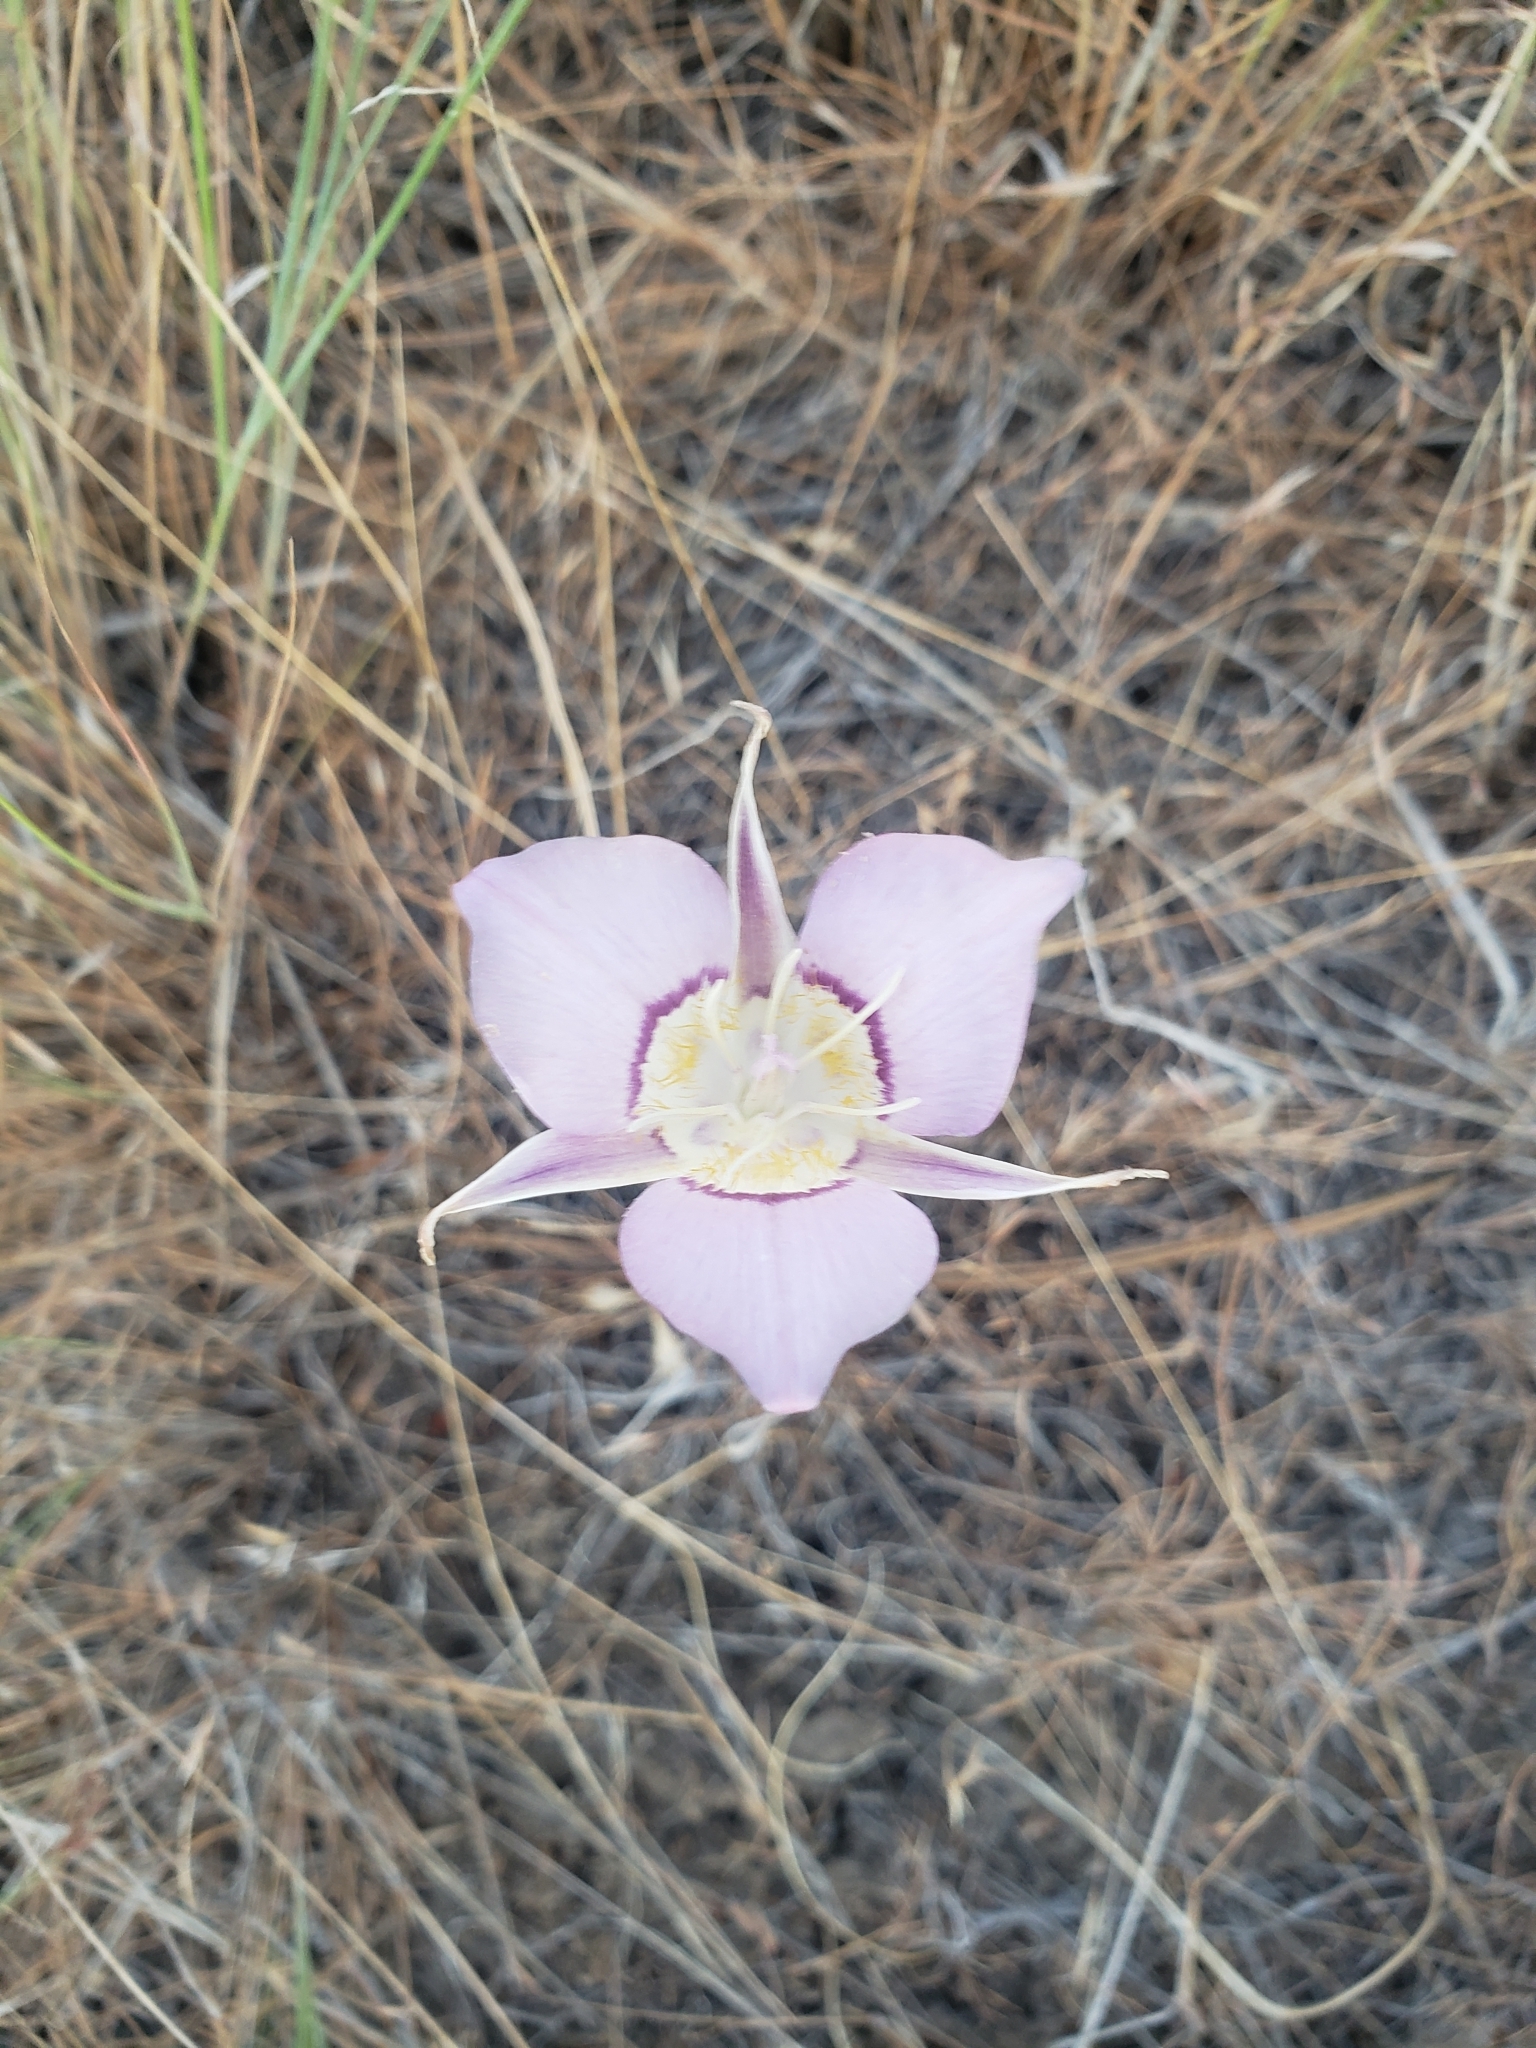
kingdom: Plantae
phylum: Tracheophyta
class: Liliopsida
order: Liliales
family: Liliaceae
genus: Calochortus
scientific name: Calochortus macrocarpus
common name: Green-band mariposa lily
